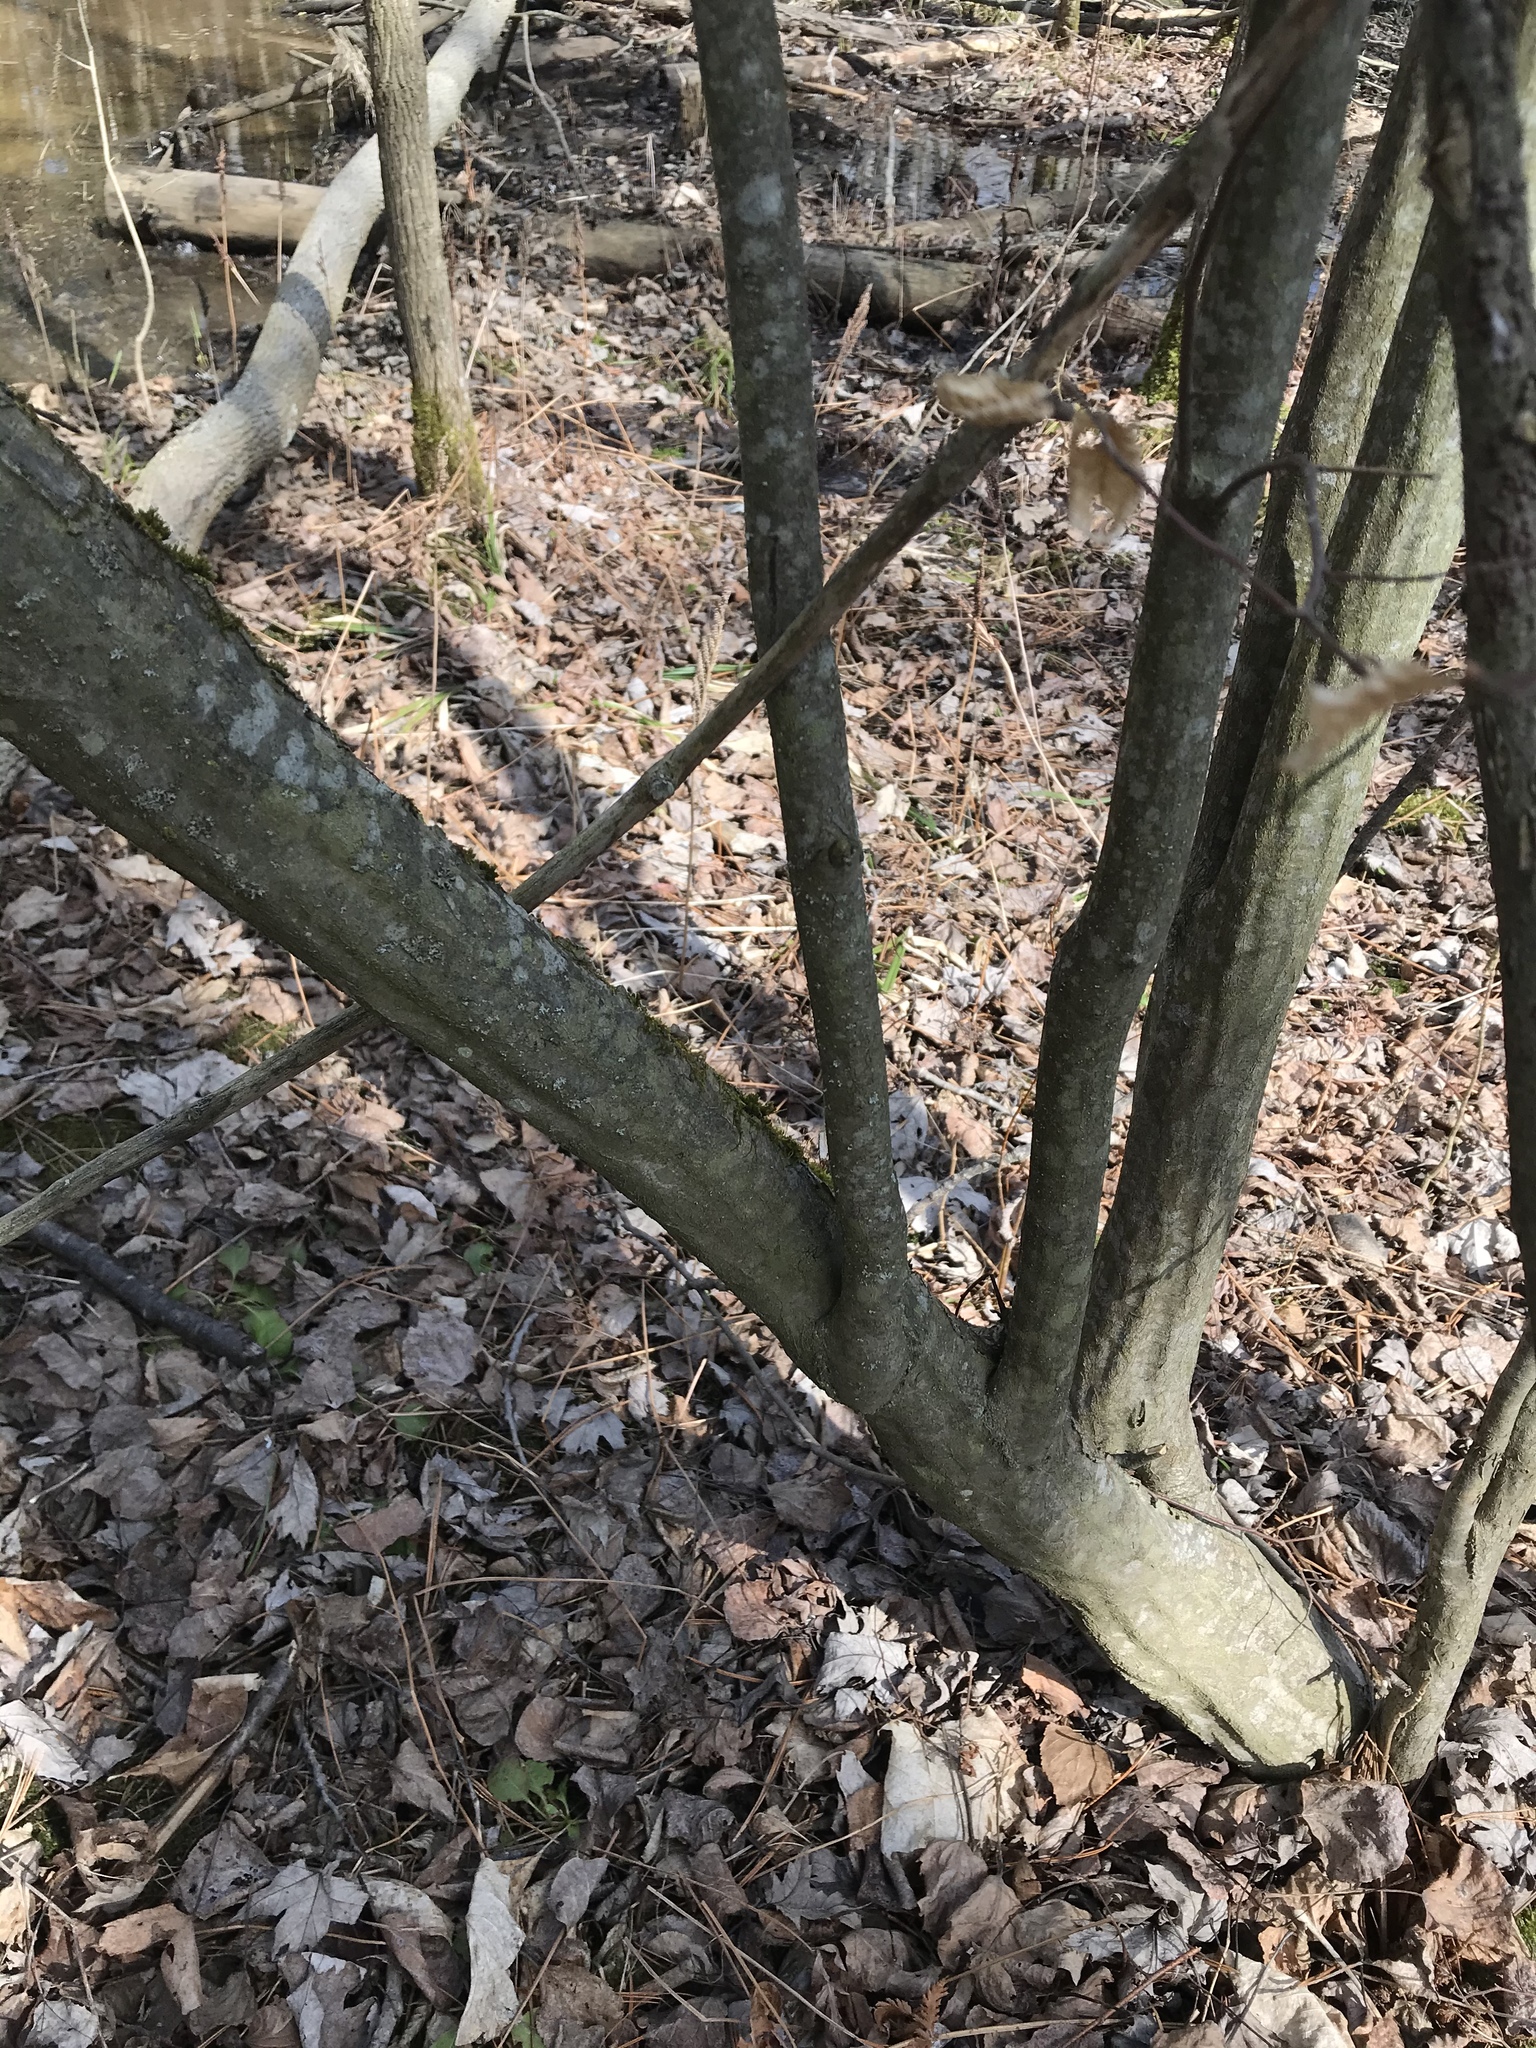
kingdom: Plantae
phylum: Tracheophyta
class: Magnoliopsida
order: Fagales
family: Betulaceae
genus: Carpinus
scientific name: Carpinus caroliniana
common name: American hornbeam
